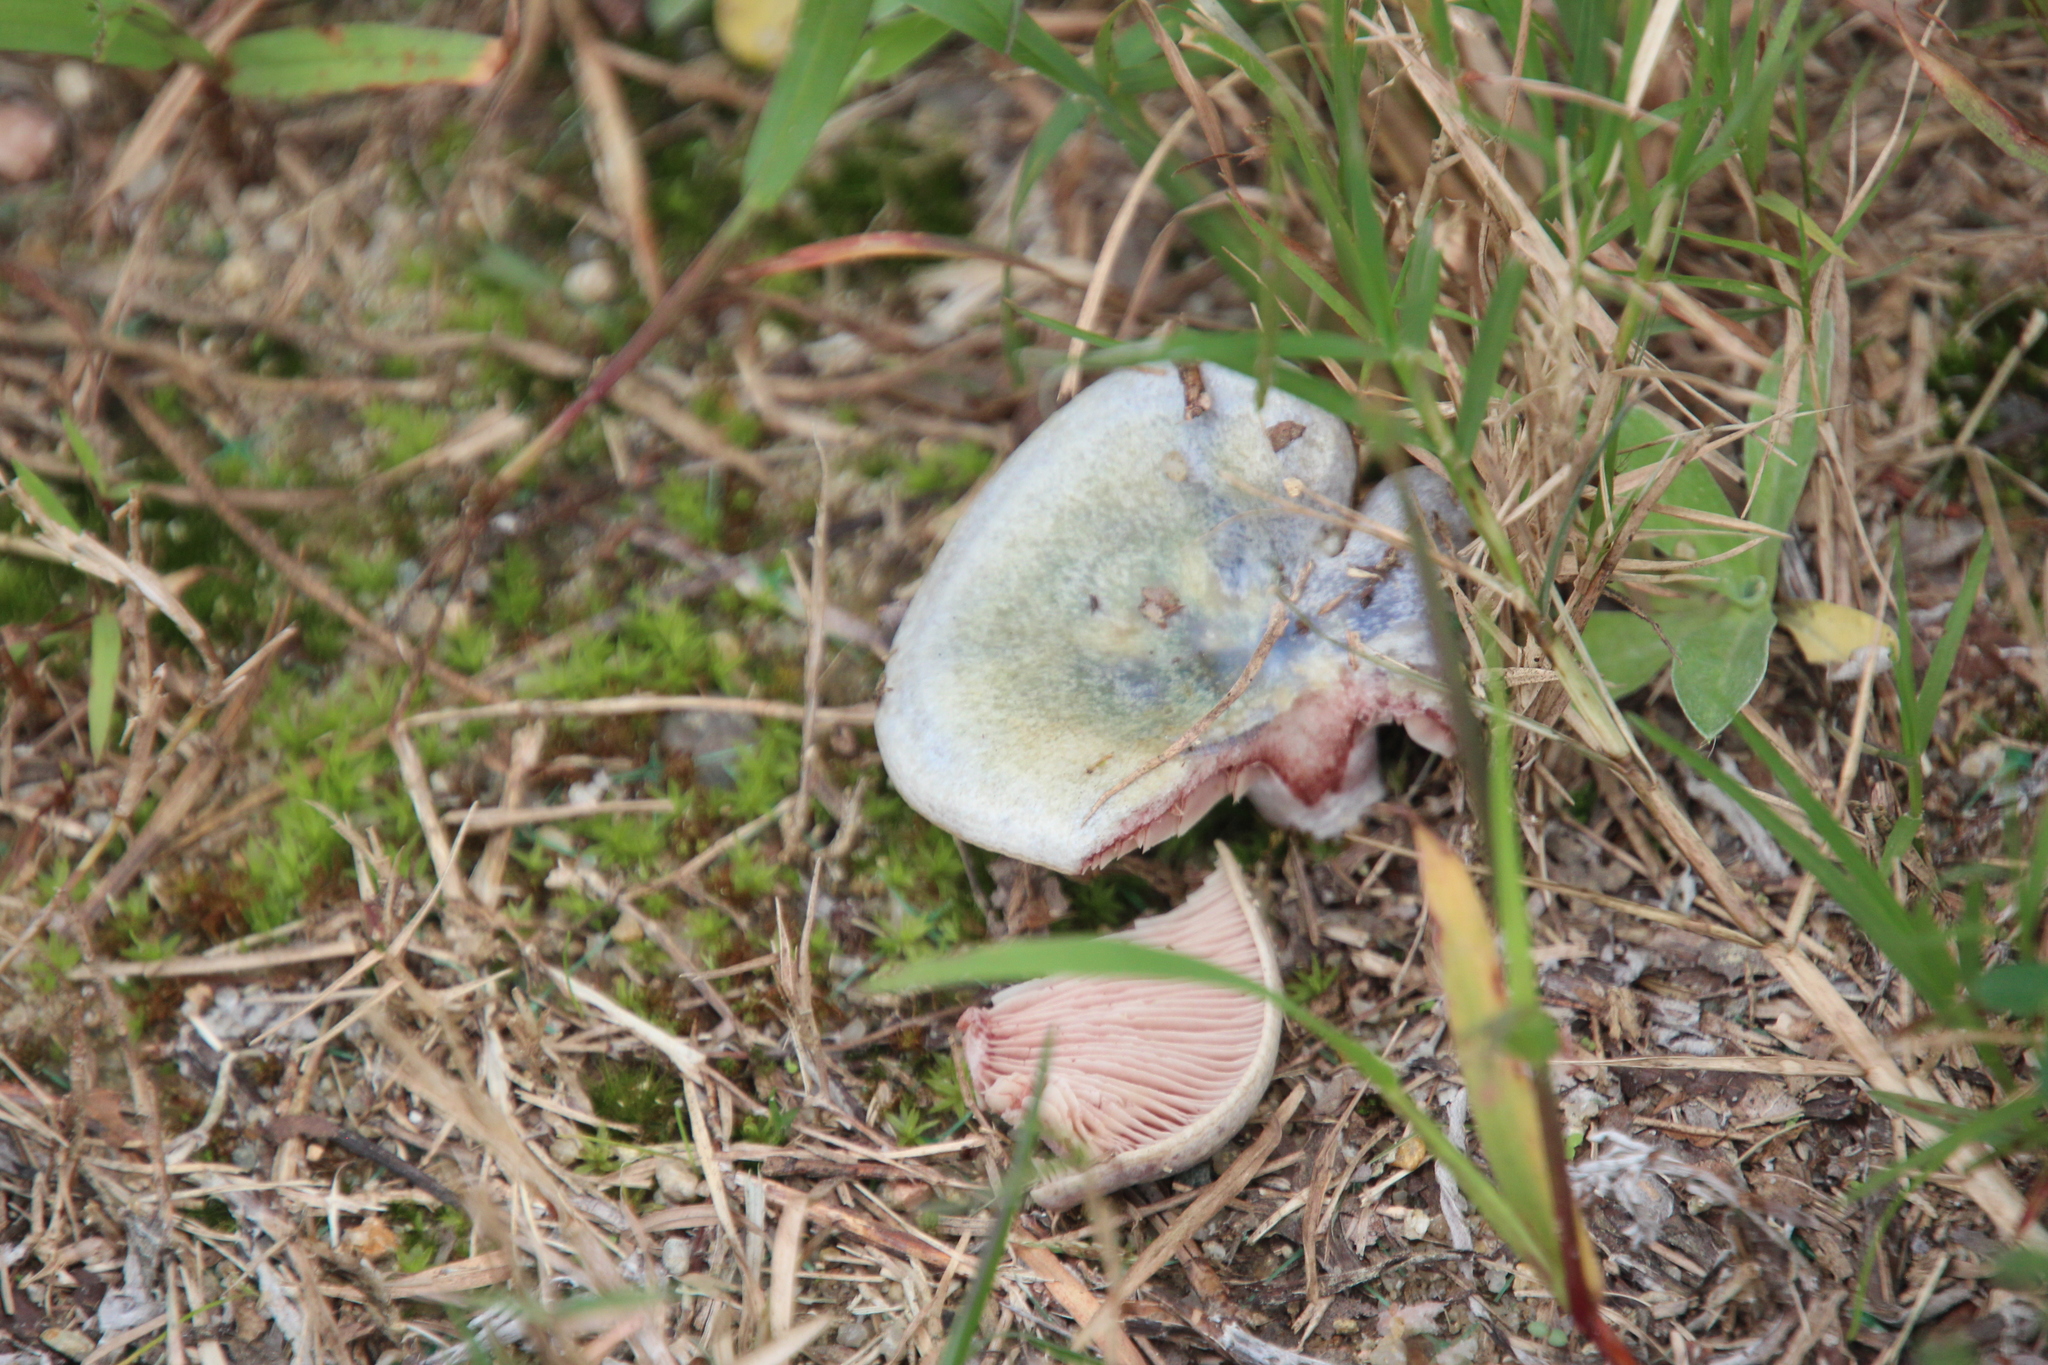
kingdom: Fungi
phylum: Basidiomycota
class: Agaricomycetes
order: Russulales
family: Russulaceae
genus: Lactarius
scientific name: Lactarius paradoxus
